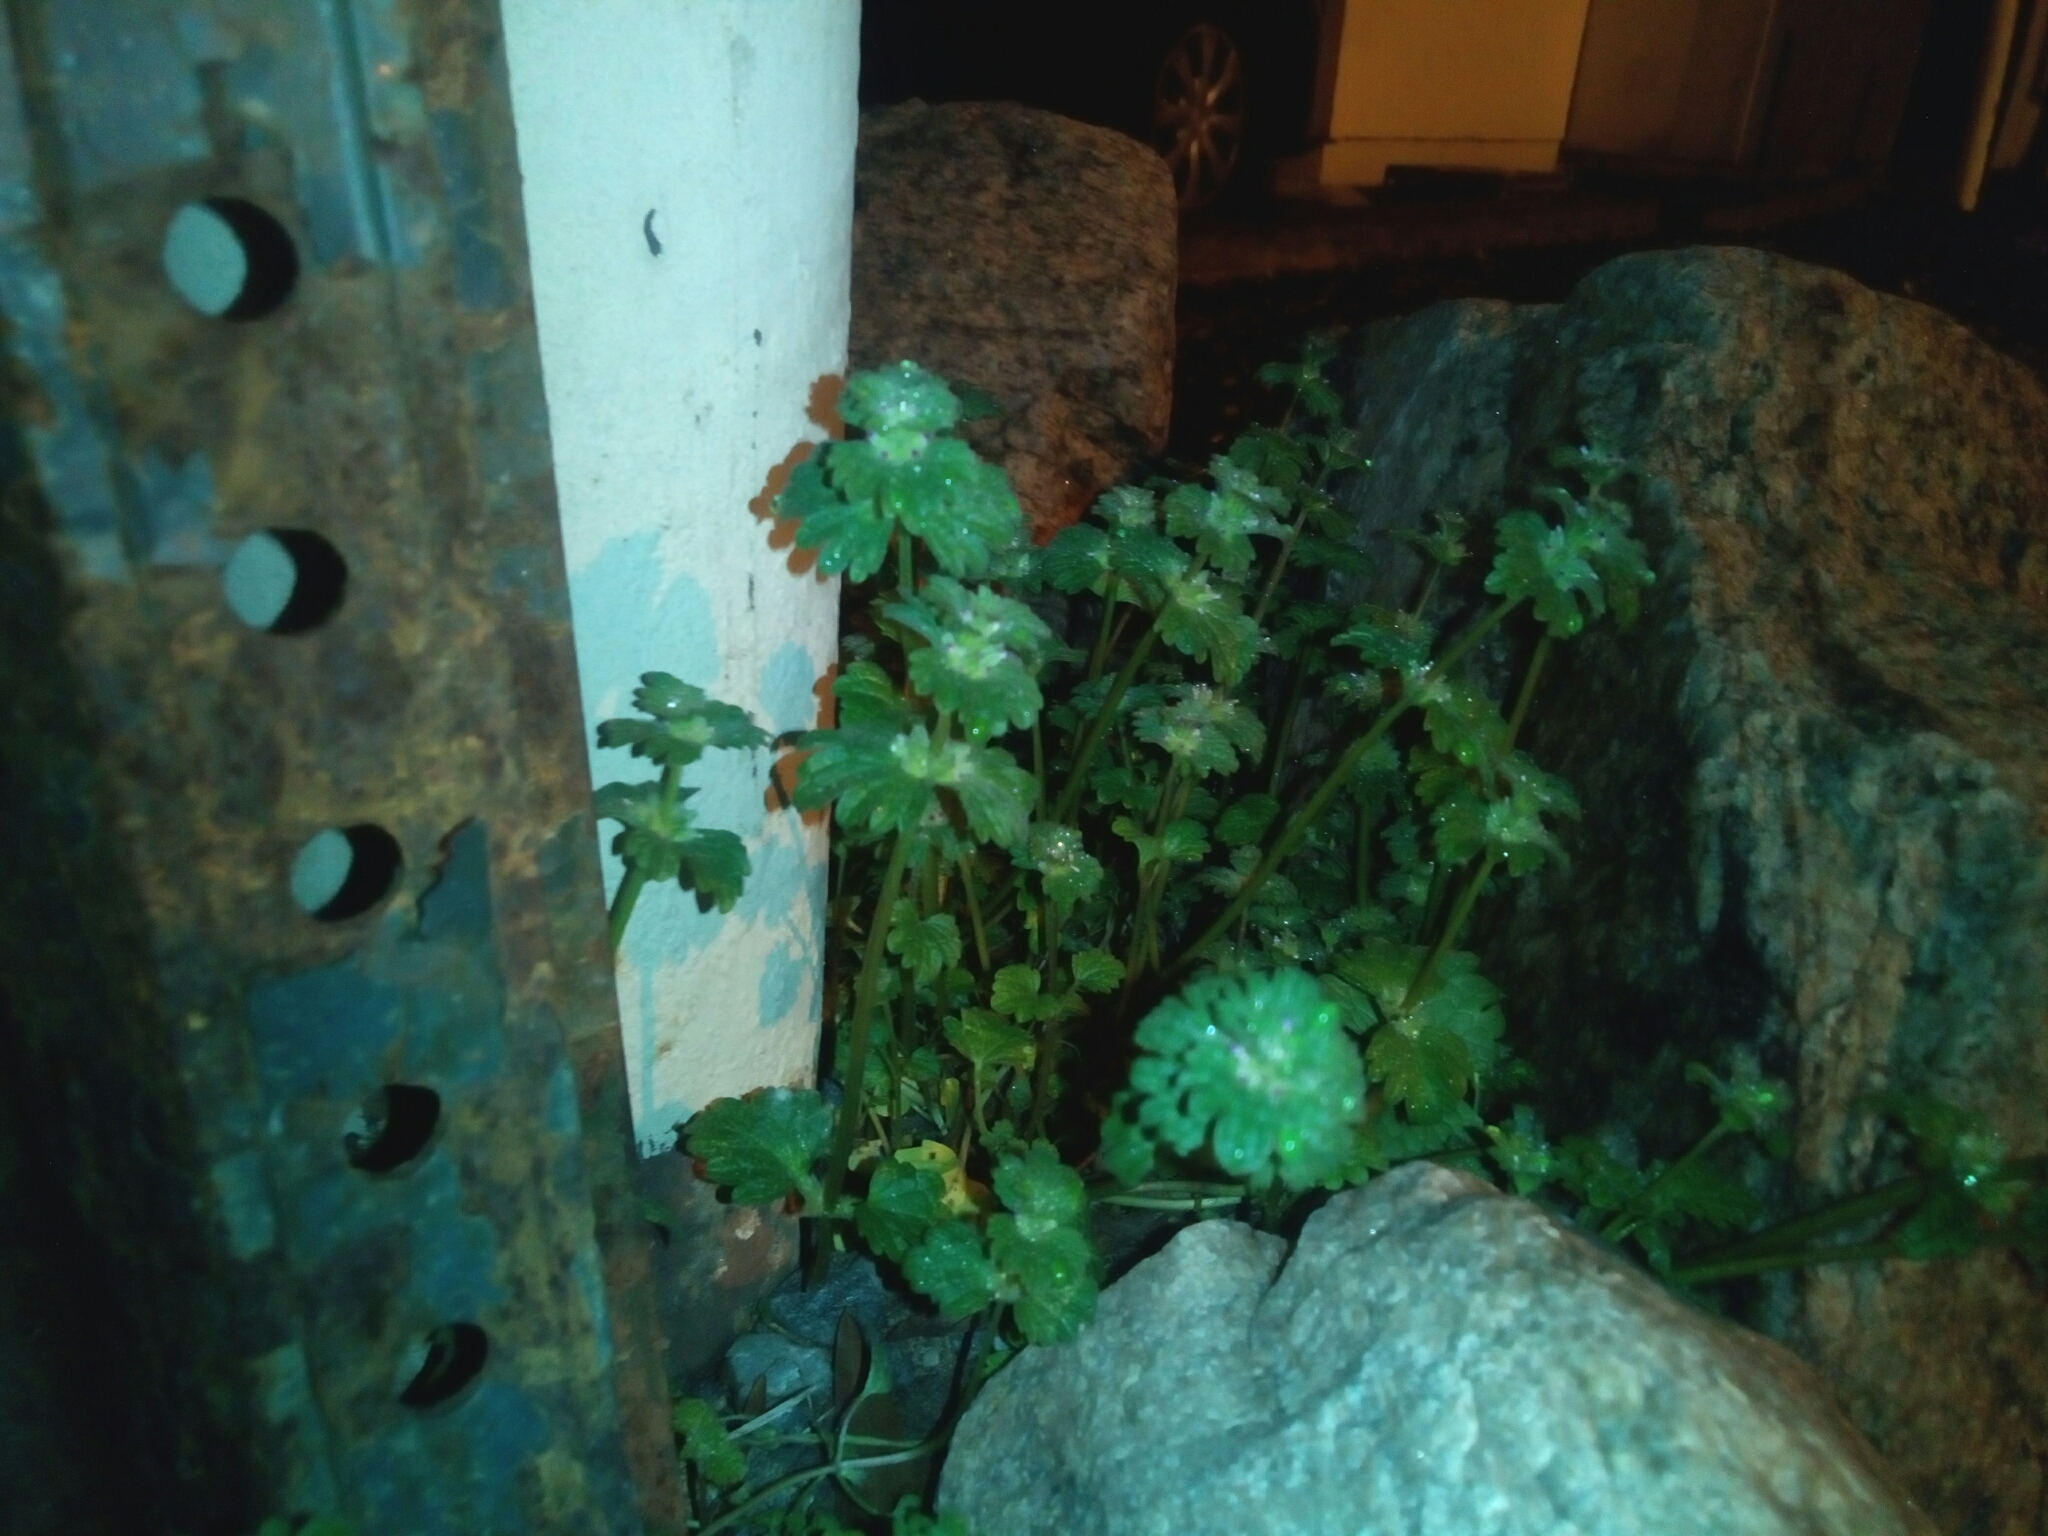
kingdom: Plantae
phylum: Tracheophyta
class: Magnoliopsida
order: Lamiales
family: Lamiaceae
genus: Lamium
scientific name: Lamium amplexicaule
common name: Henbit dead-nettle
